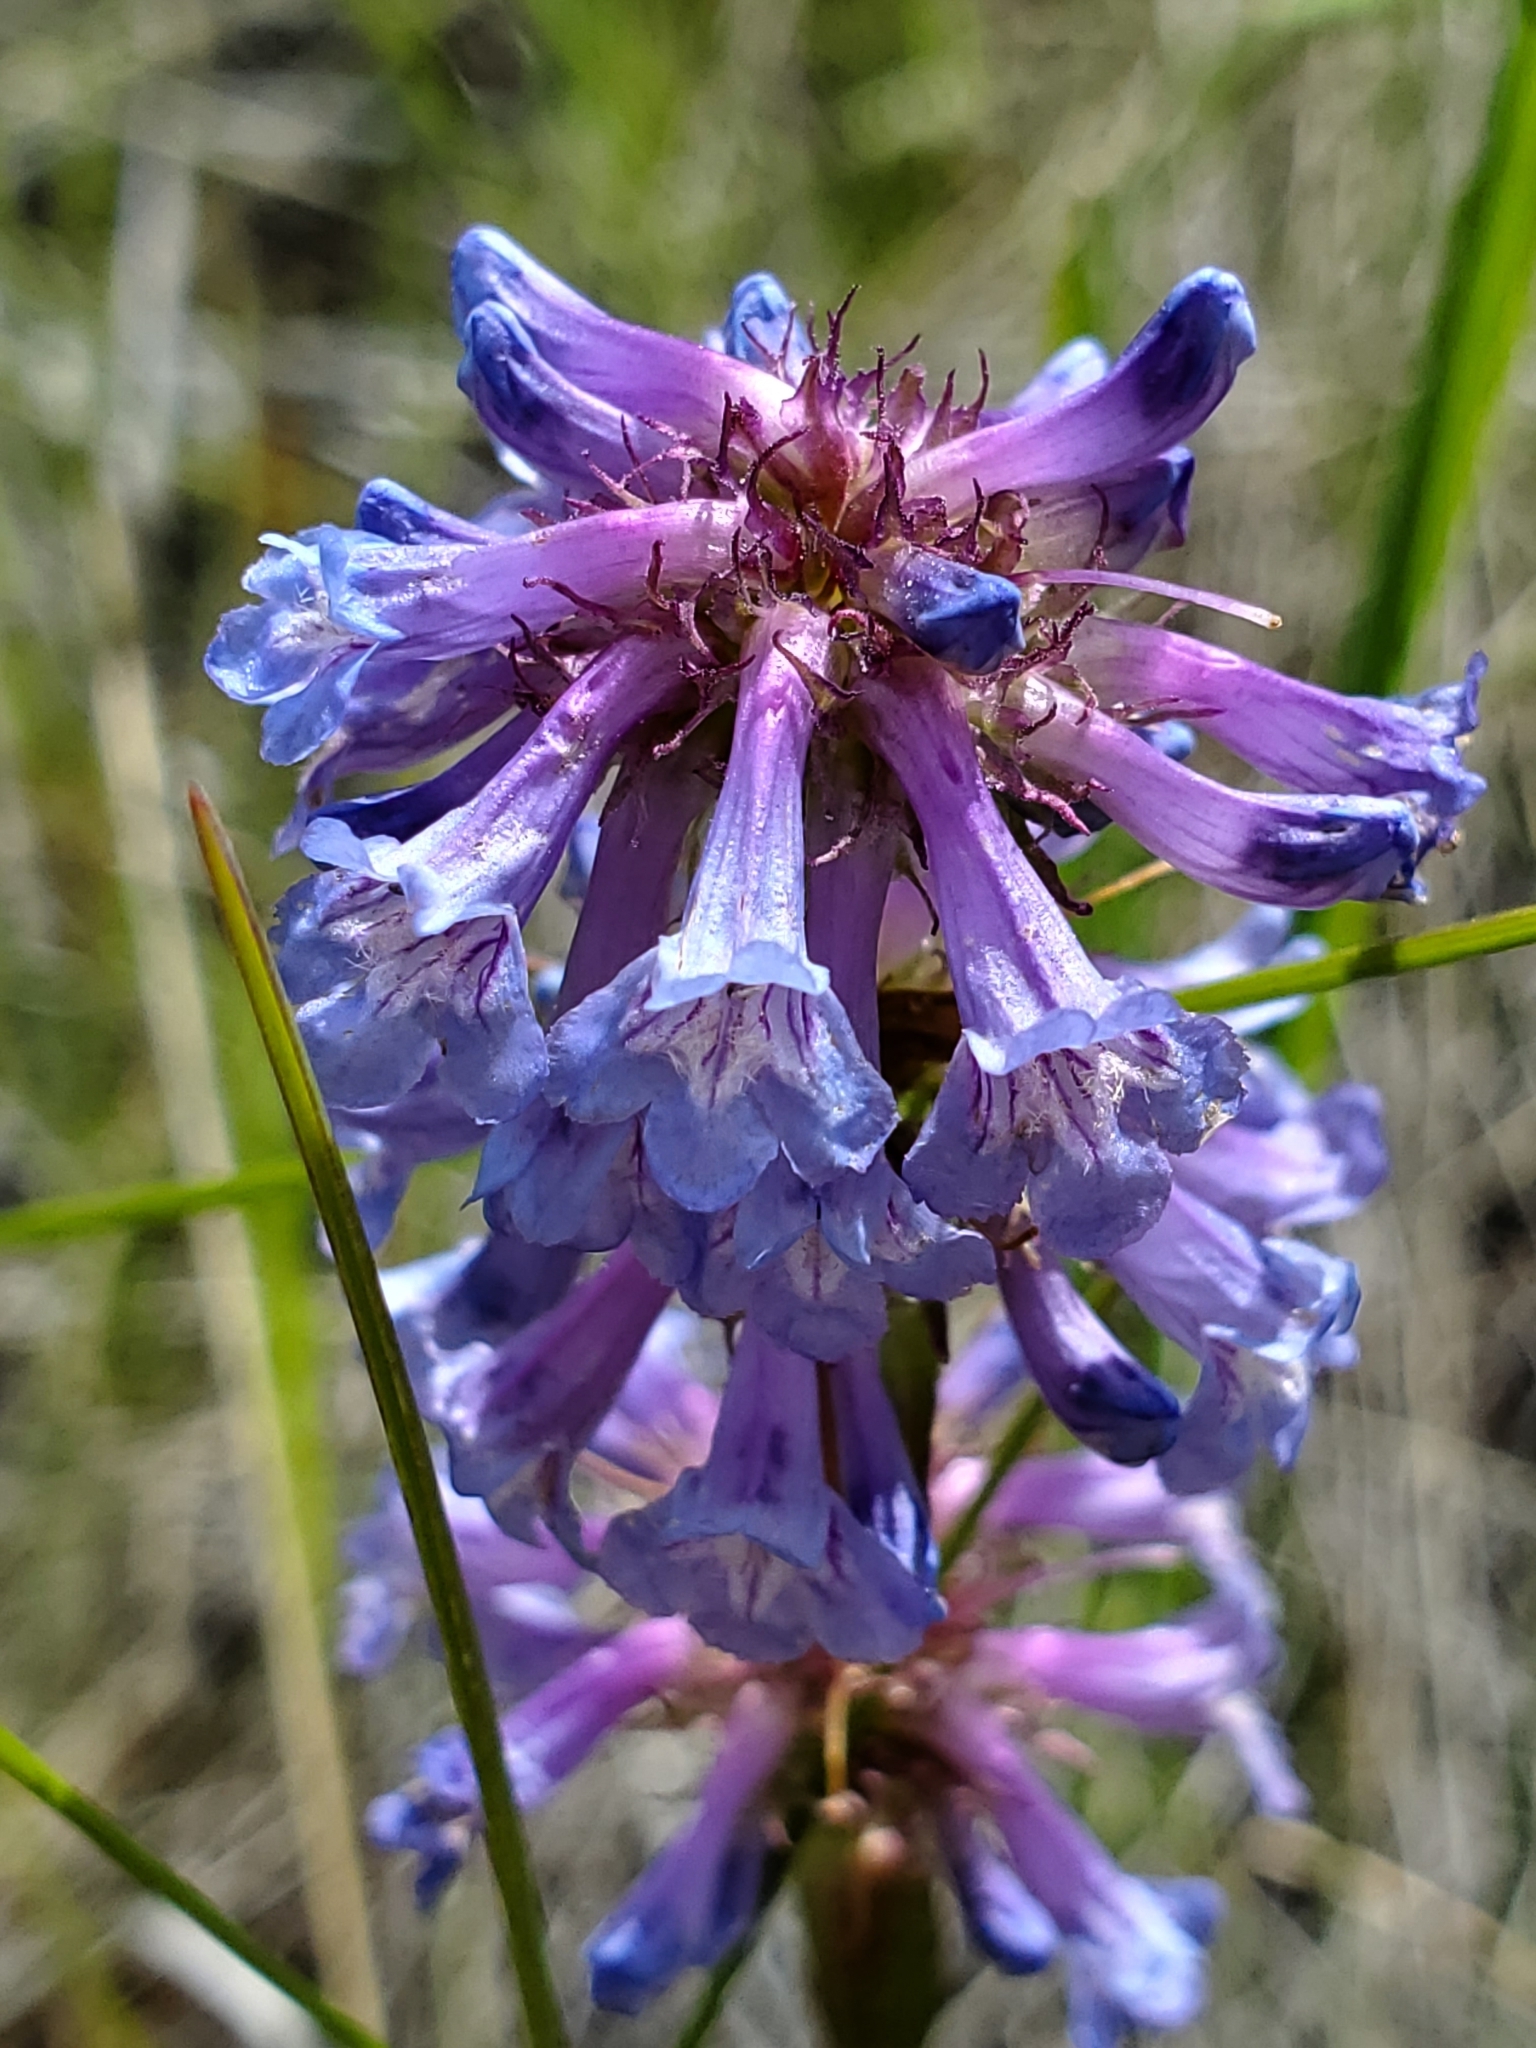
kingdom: Plantae
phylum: Tracheophyta
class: Magnoliopsida
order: Lamiales
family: Plantaginaceae
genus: Penstemon
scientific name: Penstemon procerus
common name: Small-flower penstemon
